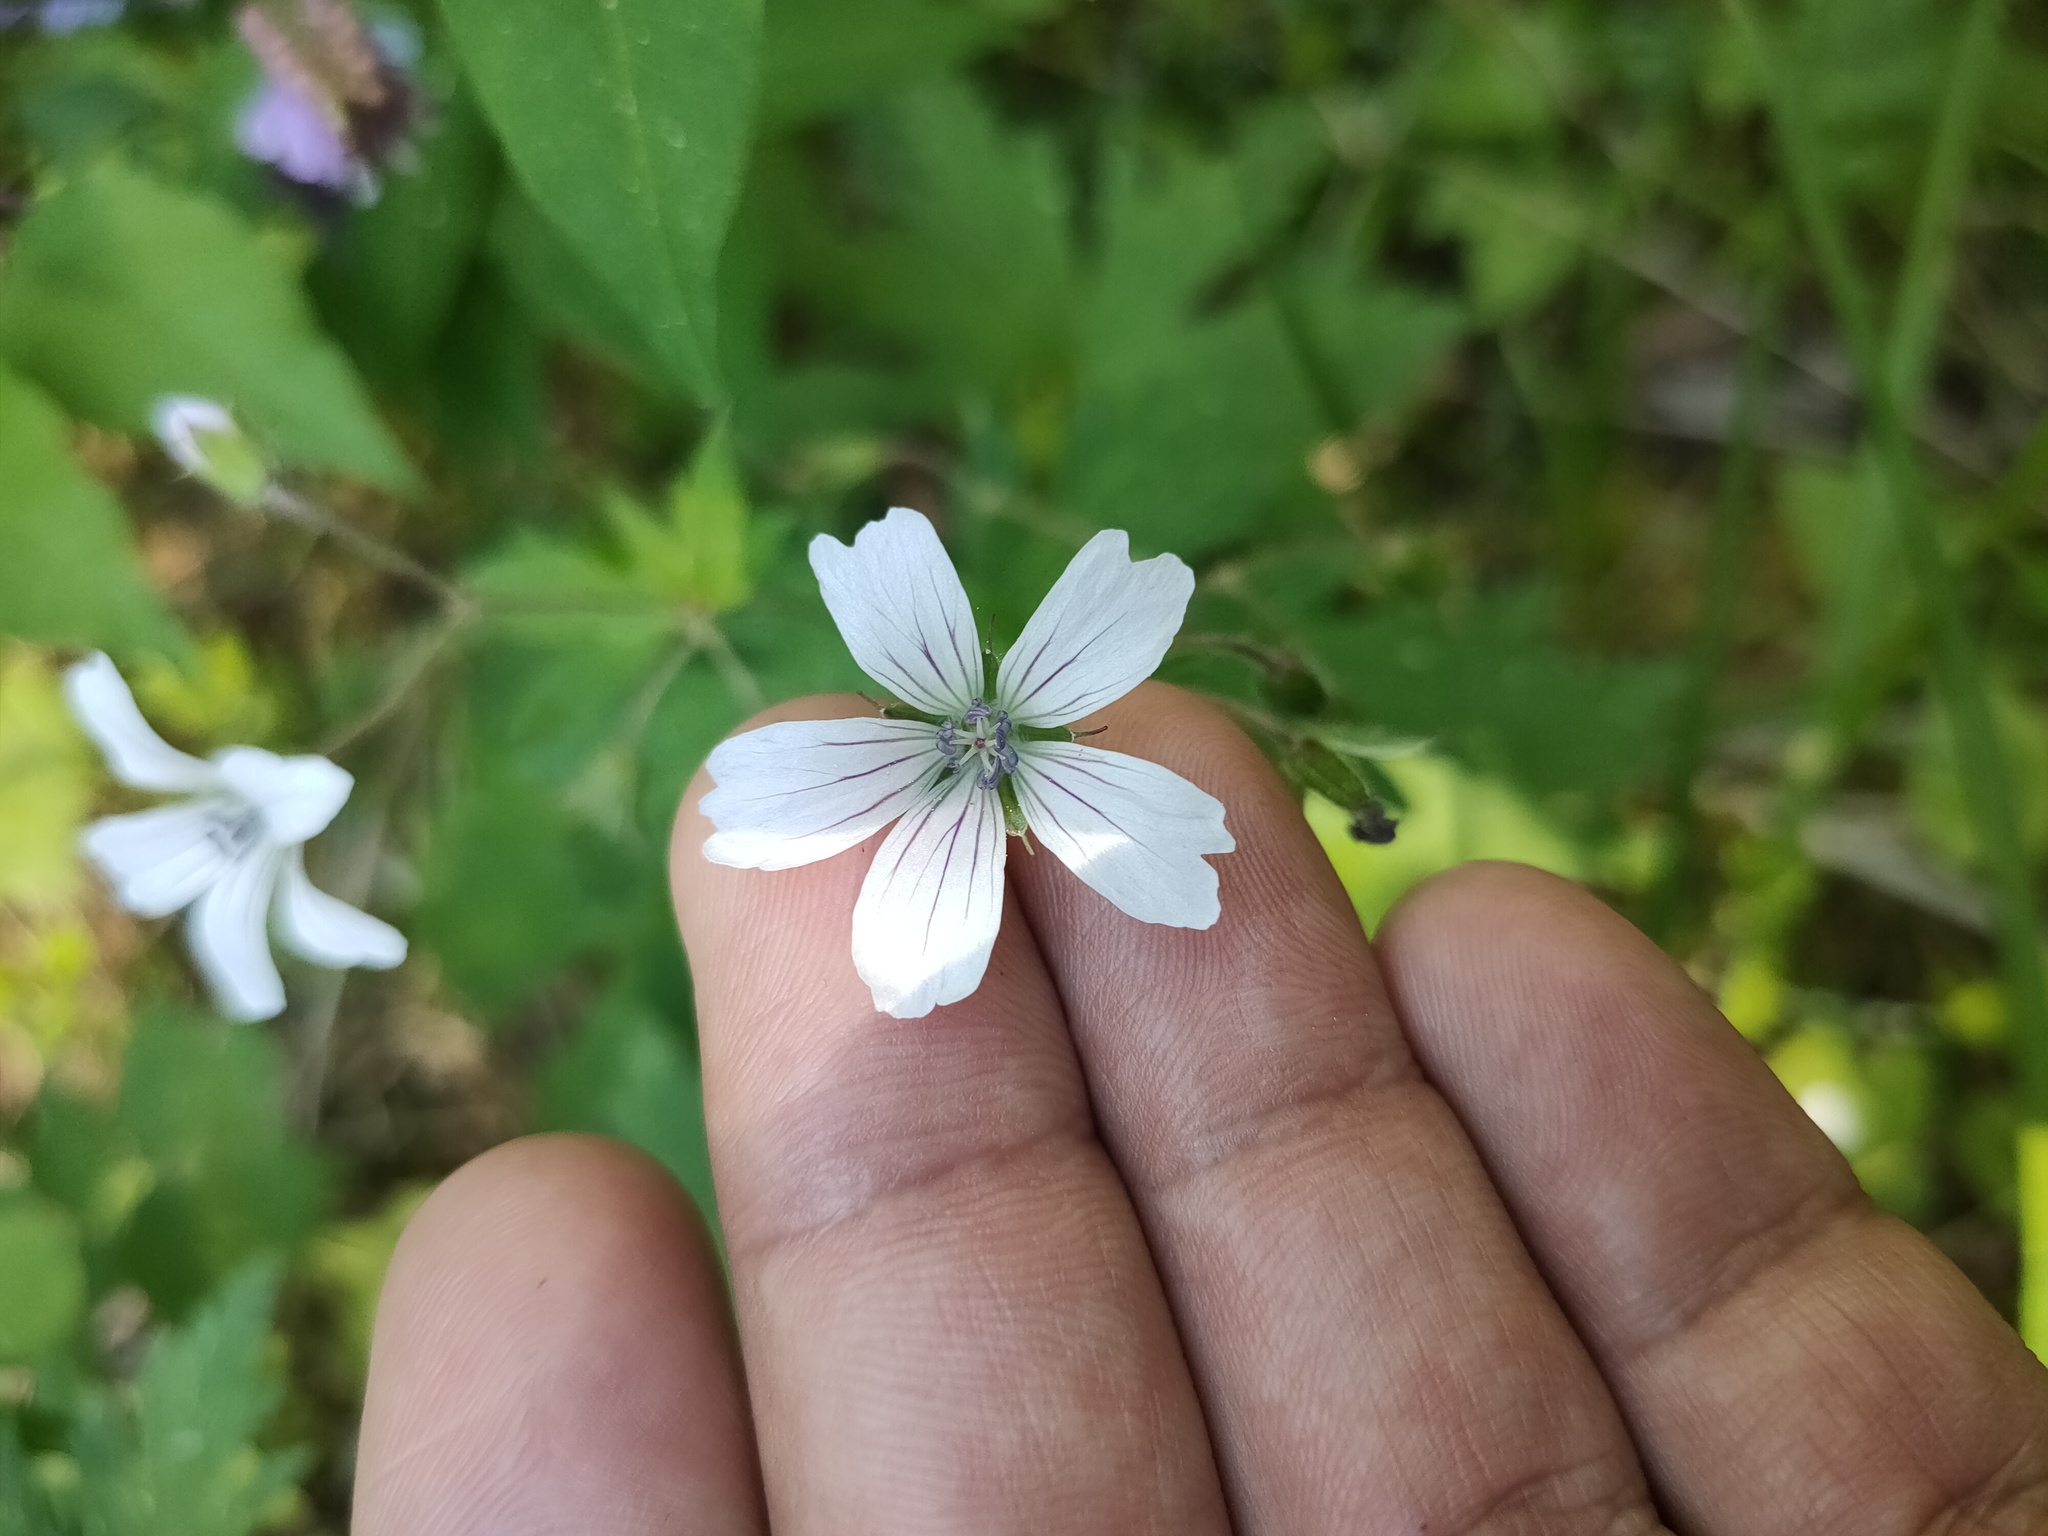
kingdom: Plantae
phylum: Tracheophyta
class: Magnoliopsida
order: Geraniales
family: Geraniaceae
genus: Geranium
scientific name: Geranium sylvaticum
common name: Wood crane's-bill
